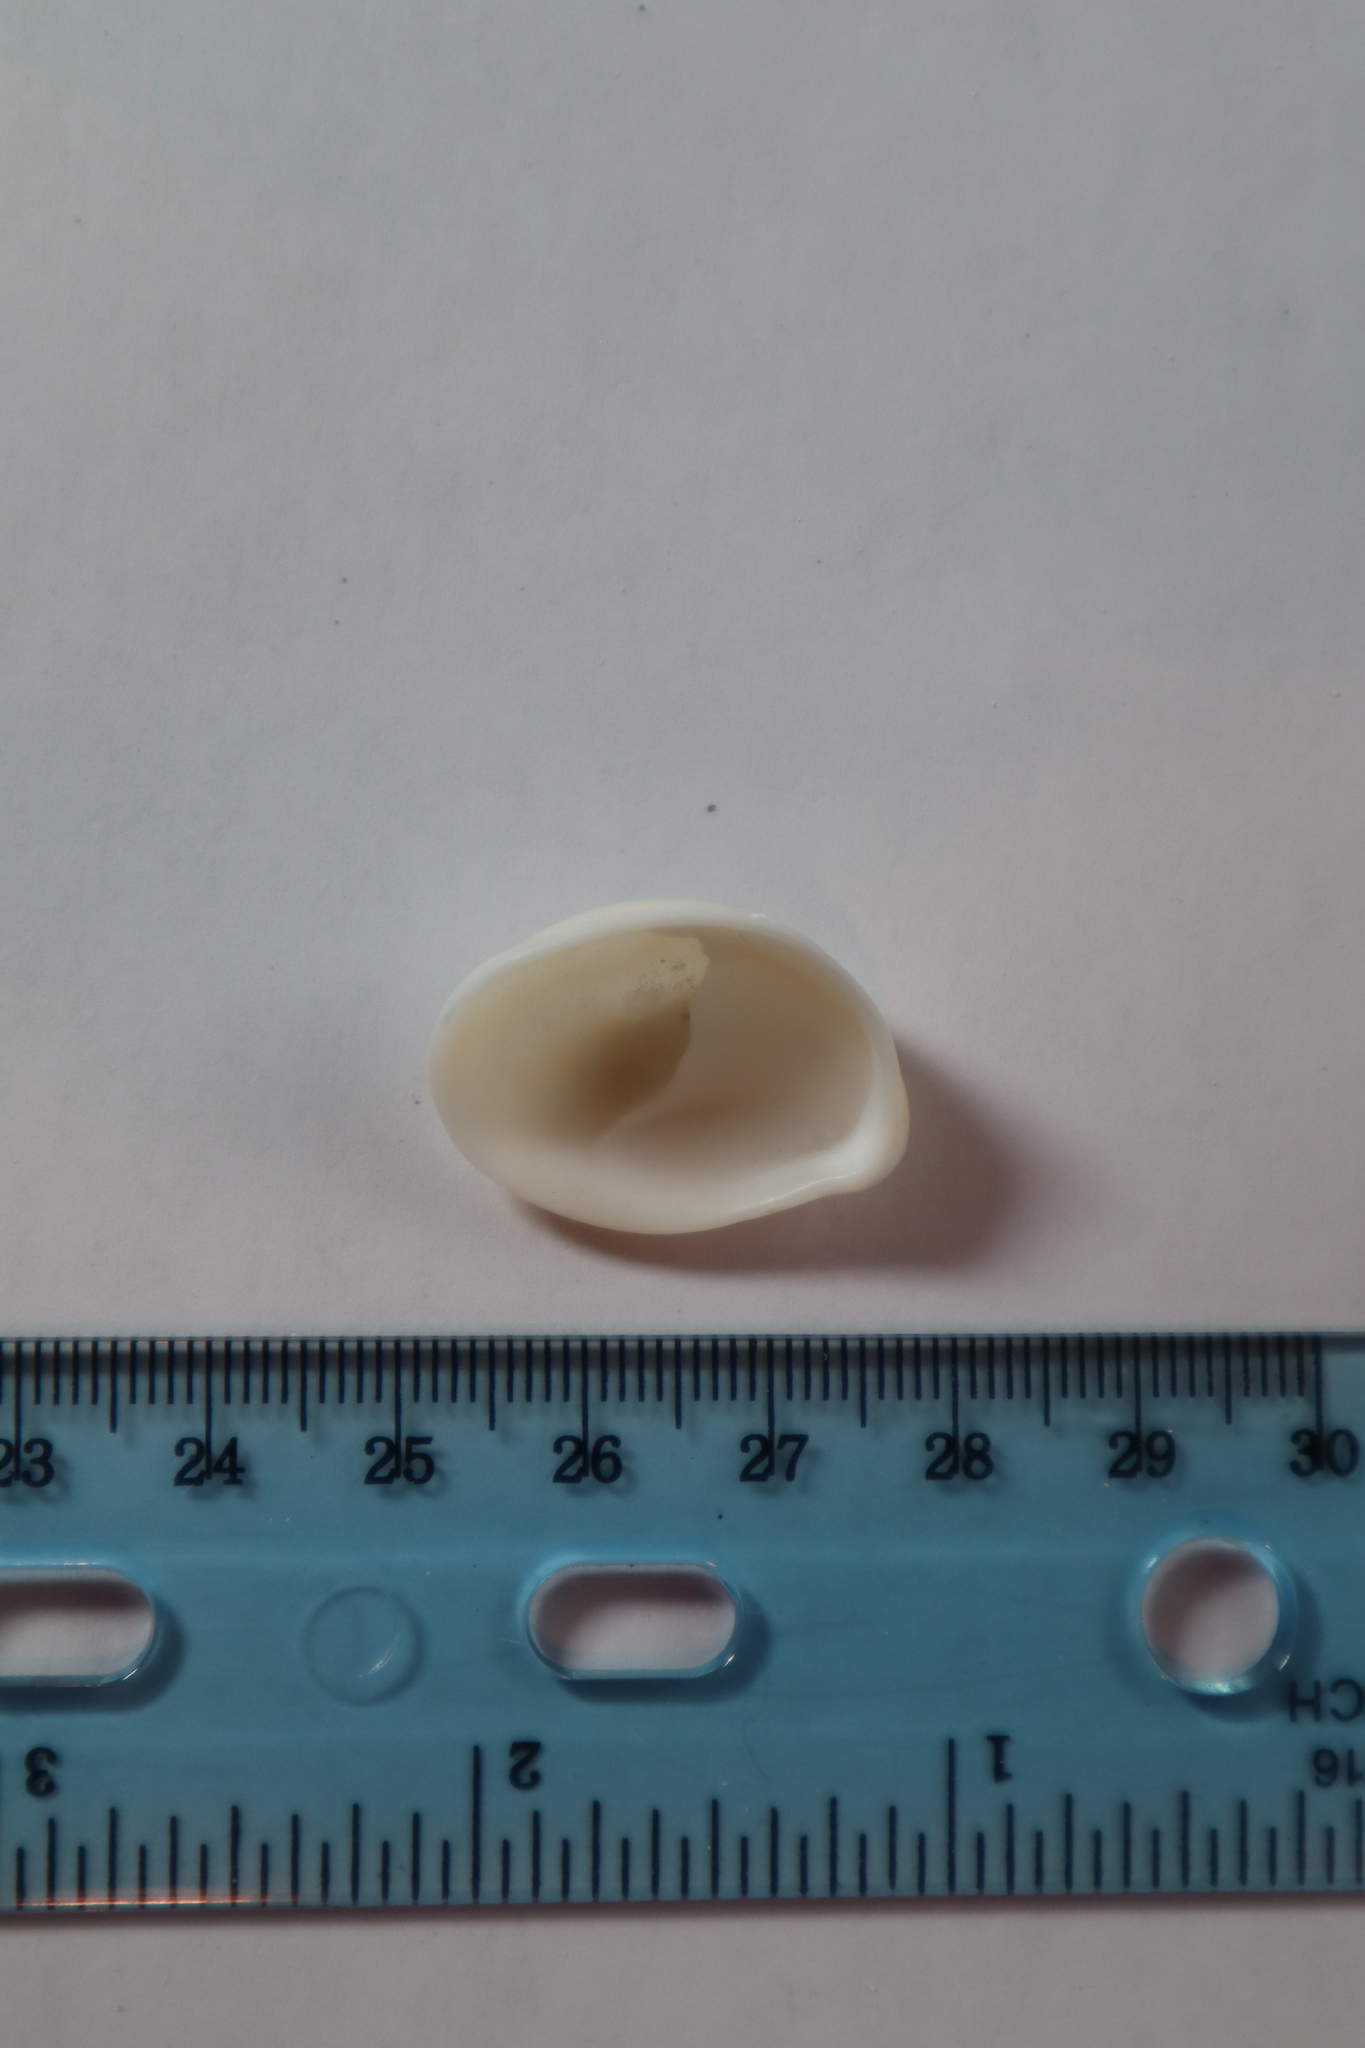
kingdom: Animalia
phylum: Mollusca
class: Gastropoda
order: Littorinimorpha
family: Calyptraeidae
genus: Crepidula
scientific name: Crepidula fornicata
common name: Slipper limpet
